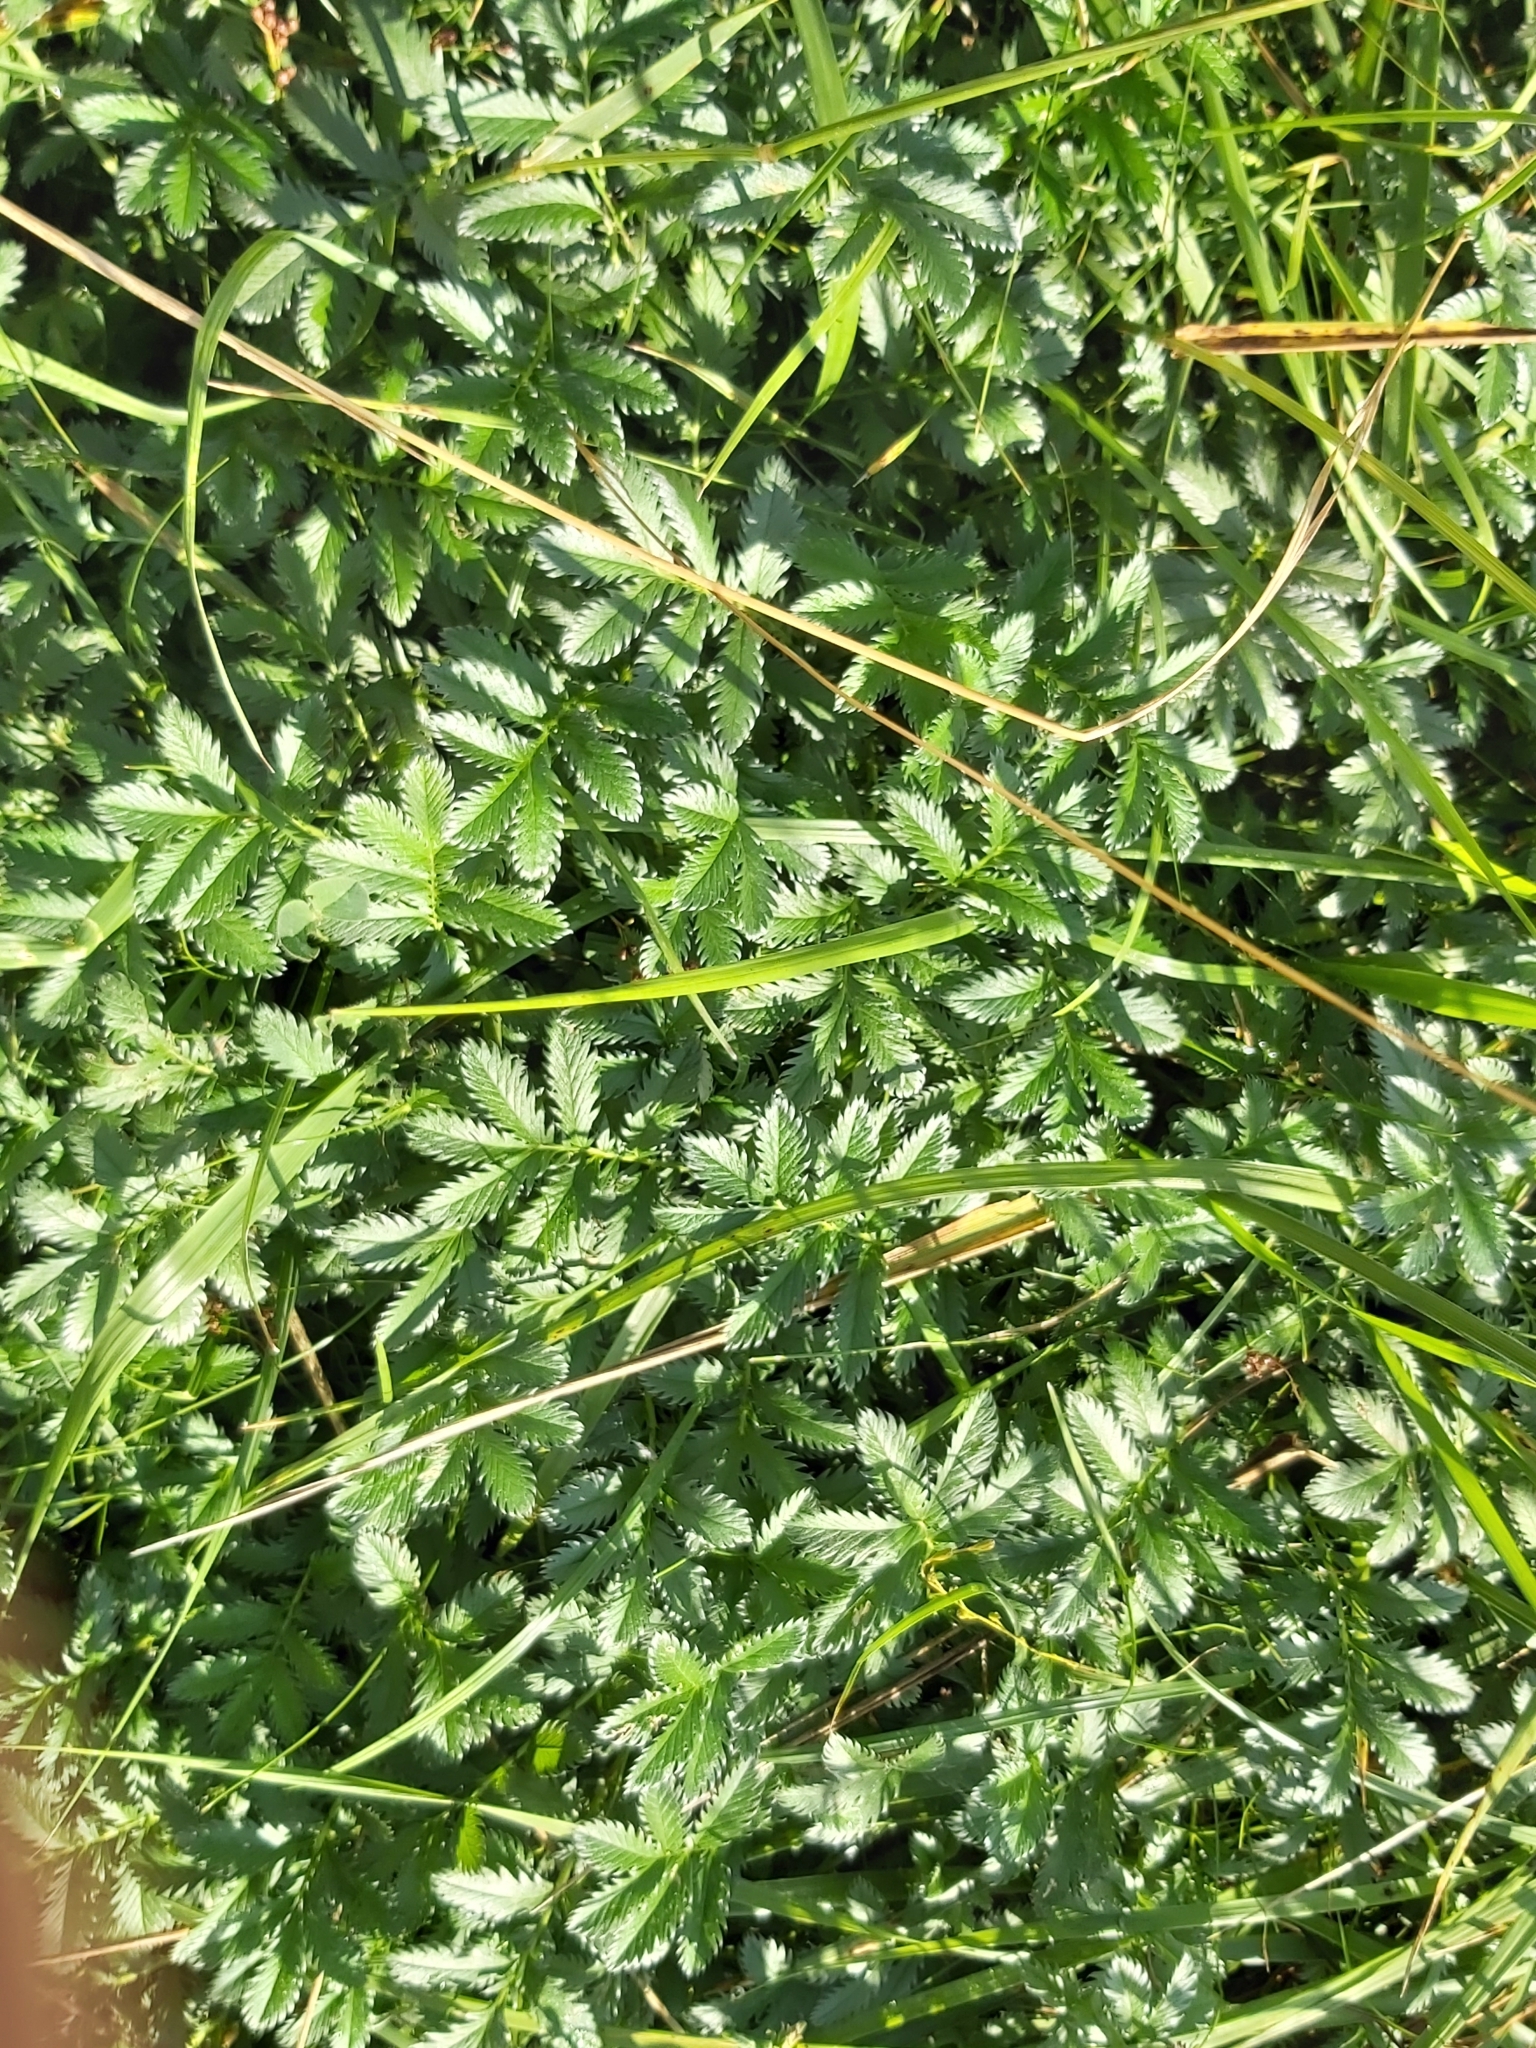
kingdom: Plantae
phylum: Tracheophyta
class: Magnoliopsida
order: Rosales
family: Rosaceae
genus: Argentina
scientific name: Argentina anserina
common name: Common silverweed
